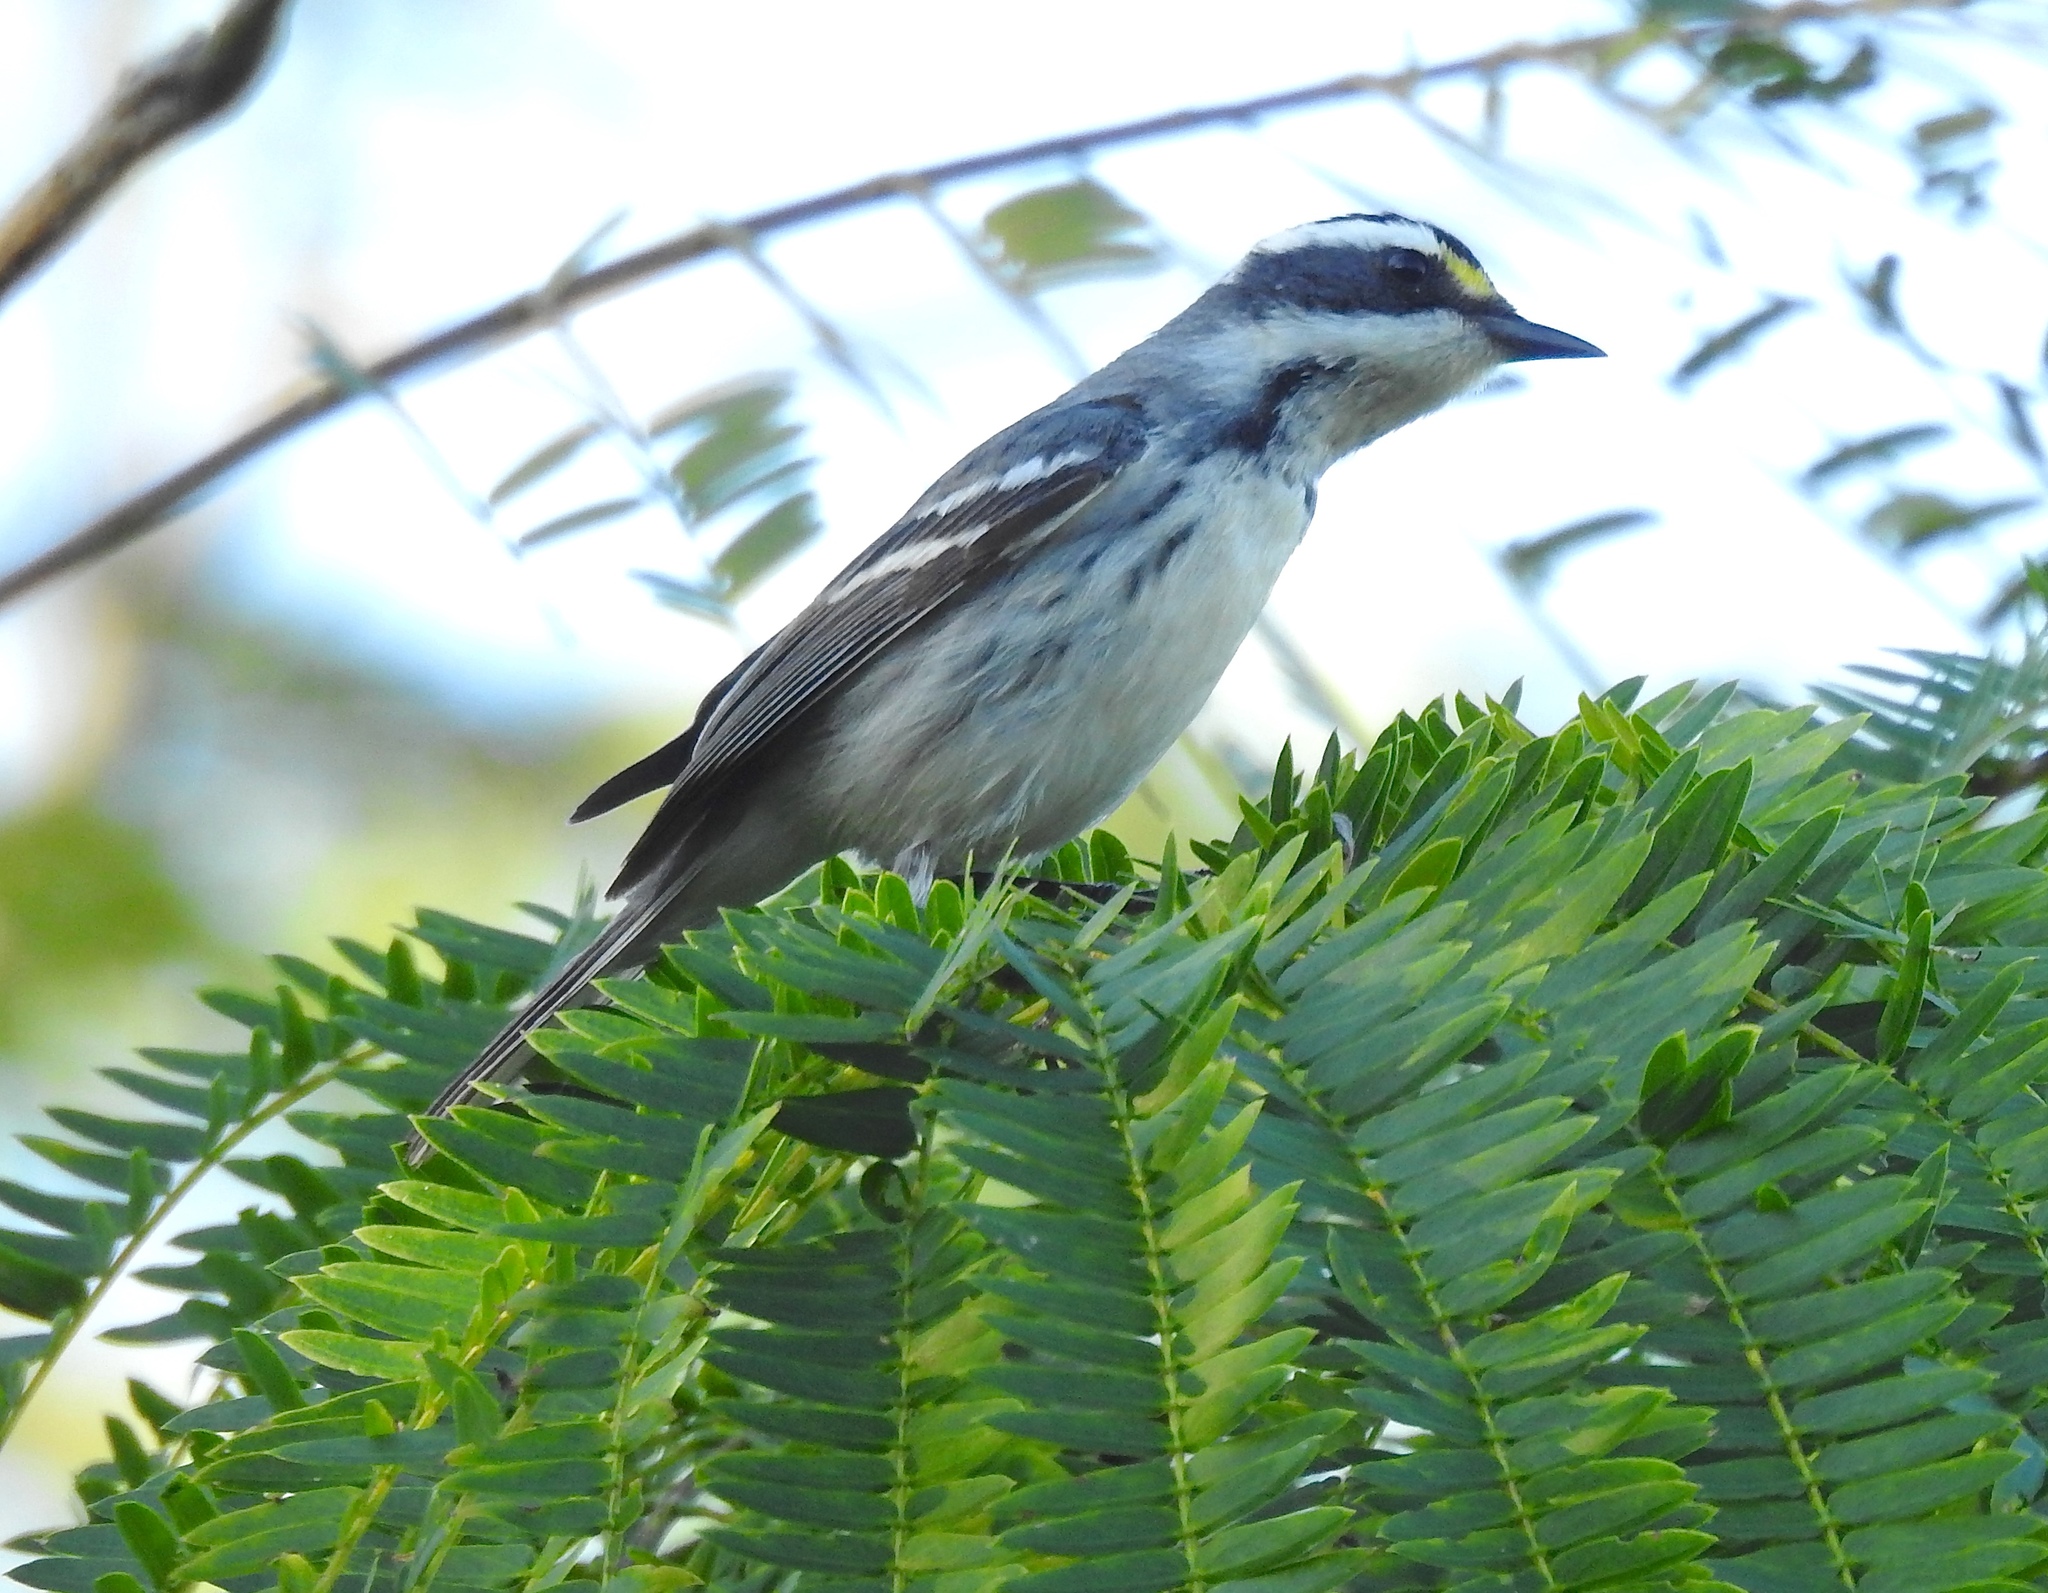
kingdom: Animalia
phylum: Chordata
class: Aves
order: Passeriformes
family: Parulidae
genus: Setophaga
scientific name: Setophaga nigrescens
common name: Black-throated gray warbler
